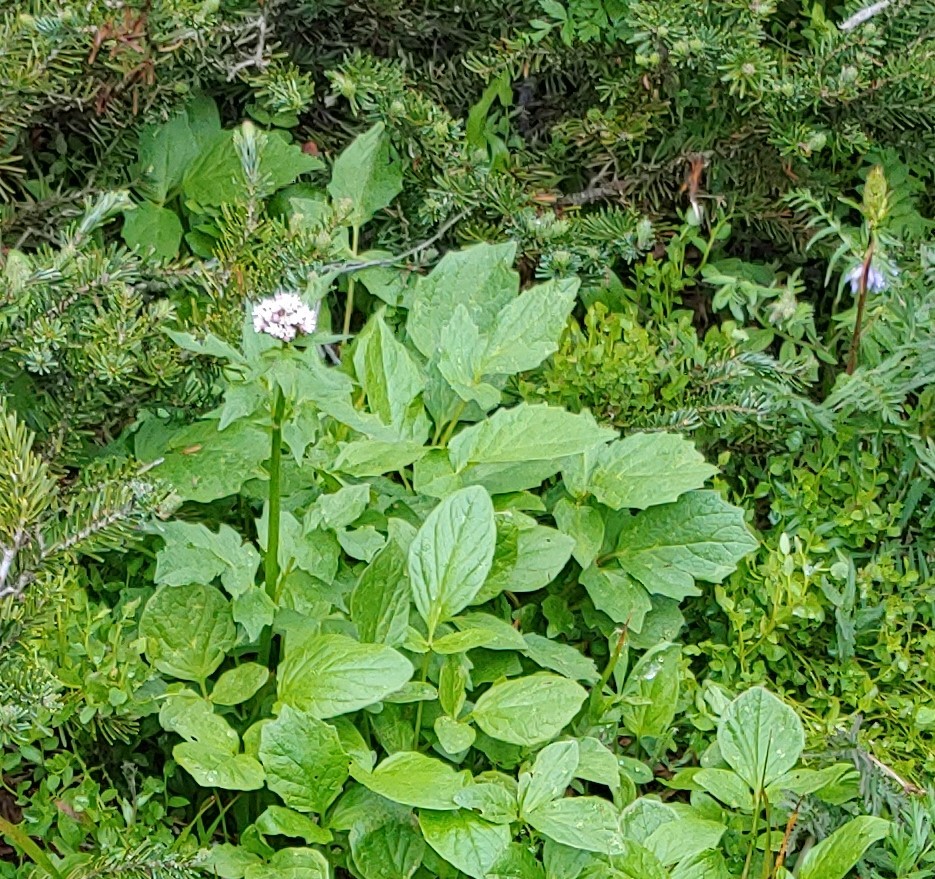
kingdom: Plantae
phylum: Tracheophyta
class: Magnoliopsida
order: Dipsacales
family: Caprifoliaceae
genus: Valeriana
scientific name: Valeriana sitchensis
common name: Pacific valerian
